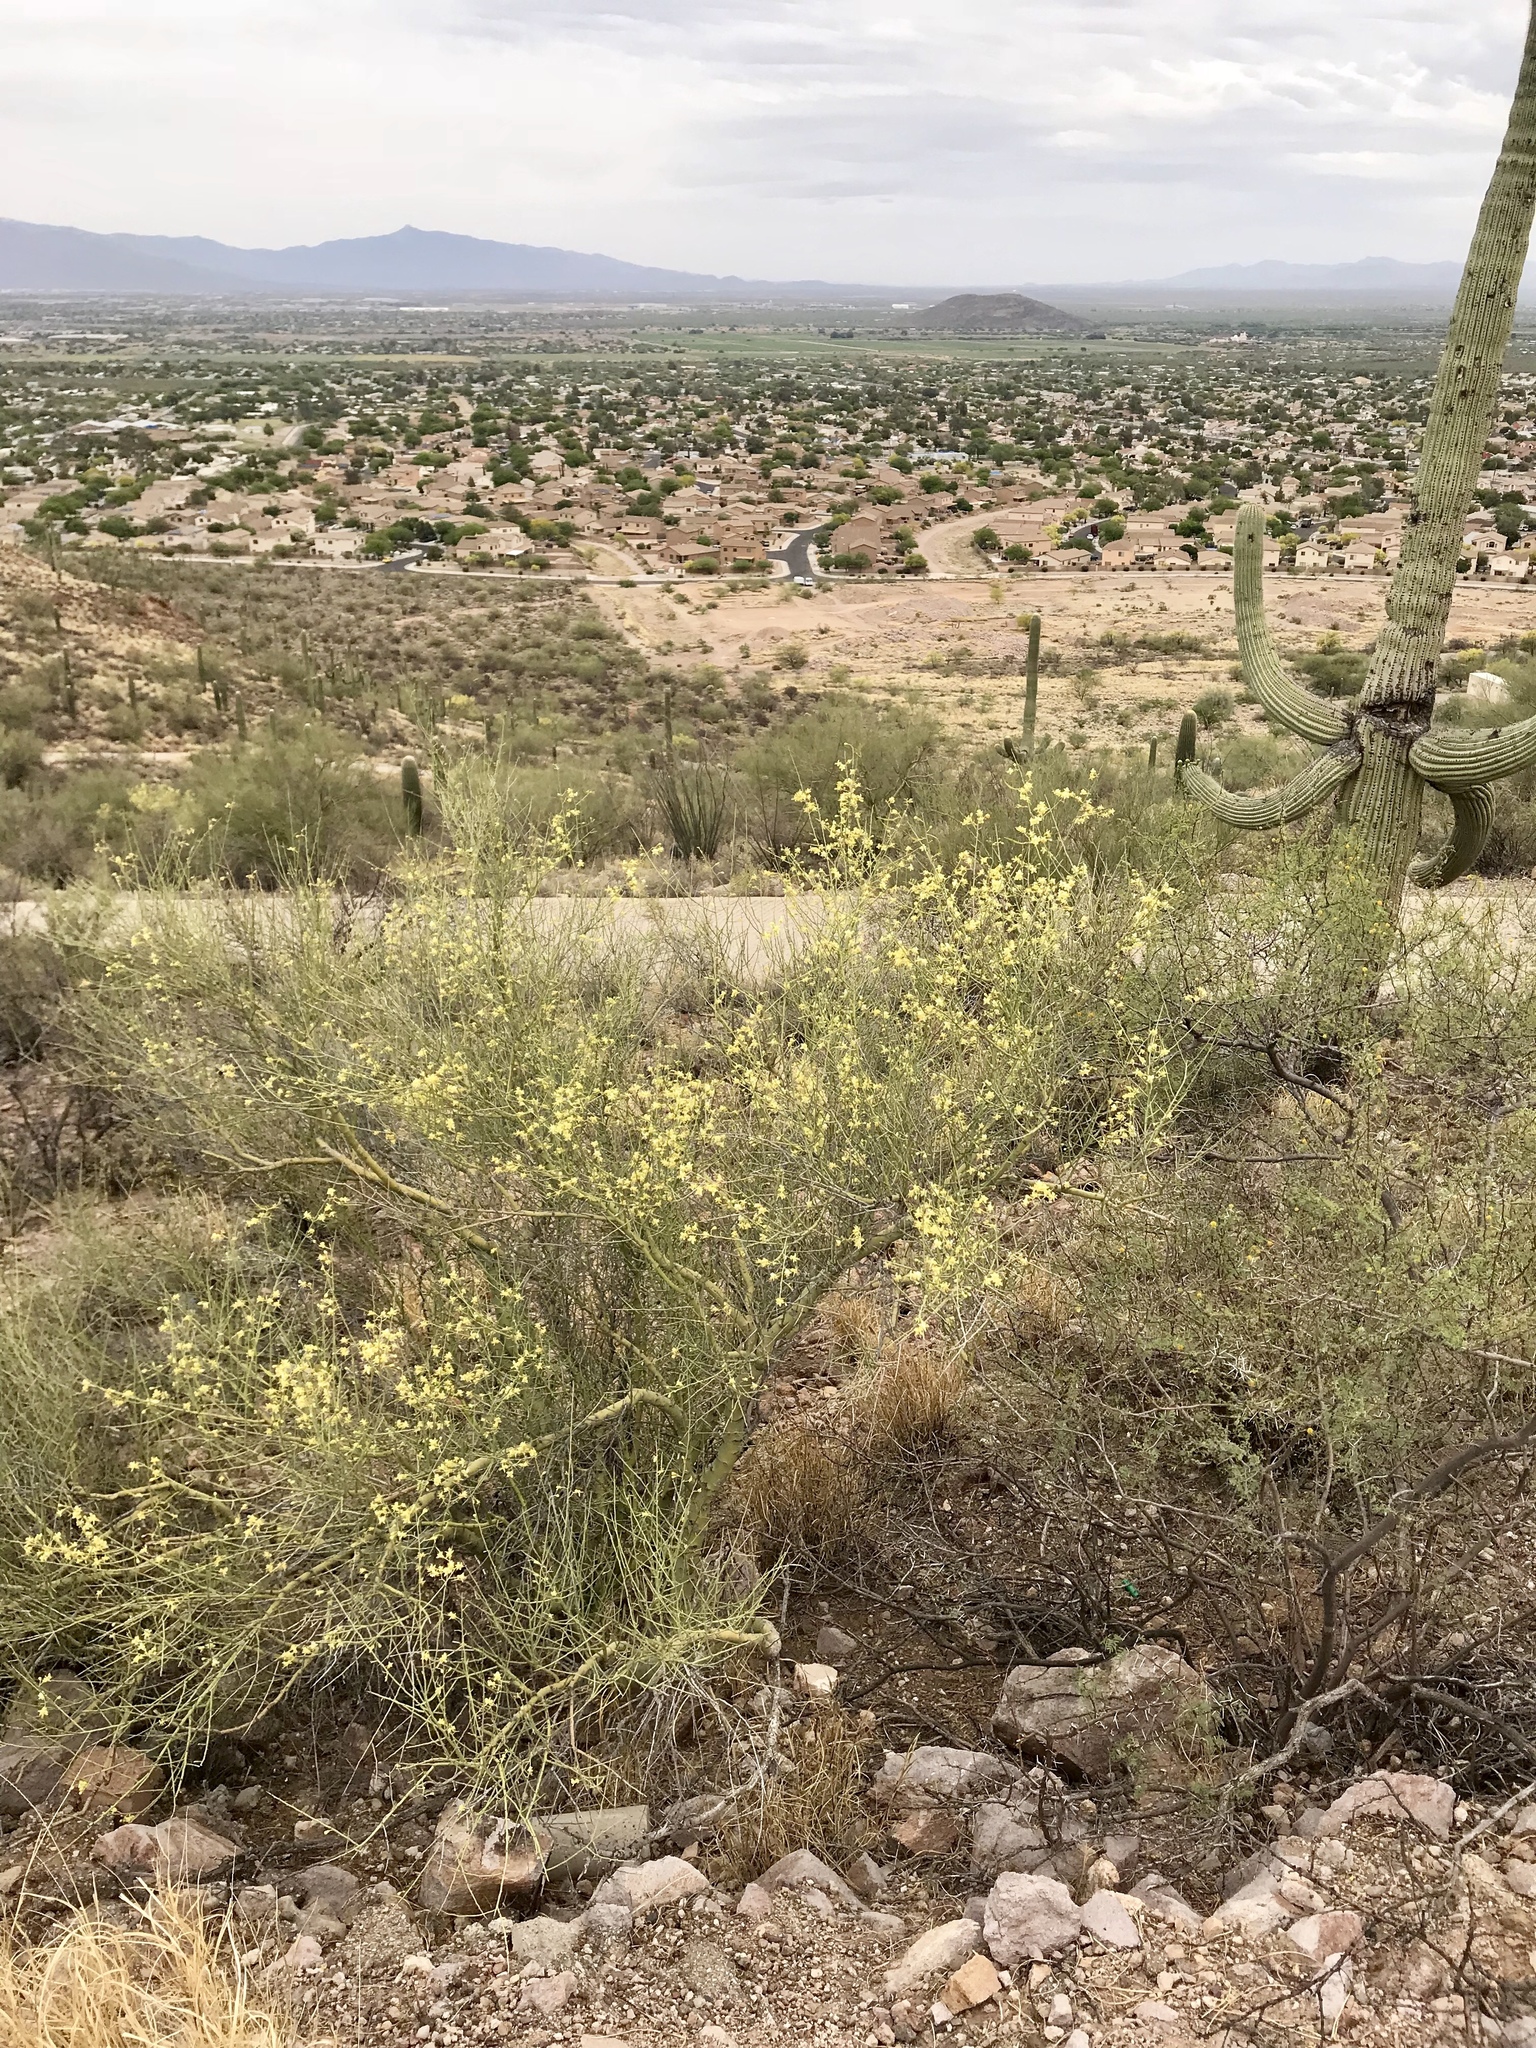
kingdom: Plantae
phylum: Tracheophyta
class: Magnoliopsida
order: Fabales
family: Fabaceae
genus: Parkinsonia
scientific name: Parkinsonia microphylla
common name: Yellow paloverde
